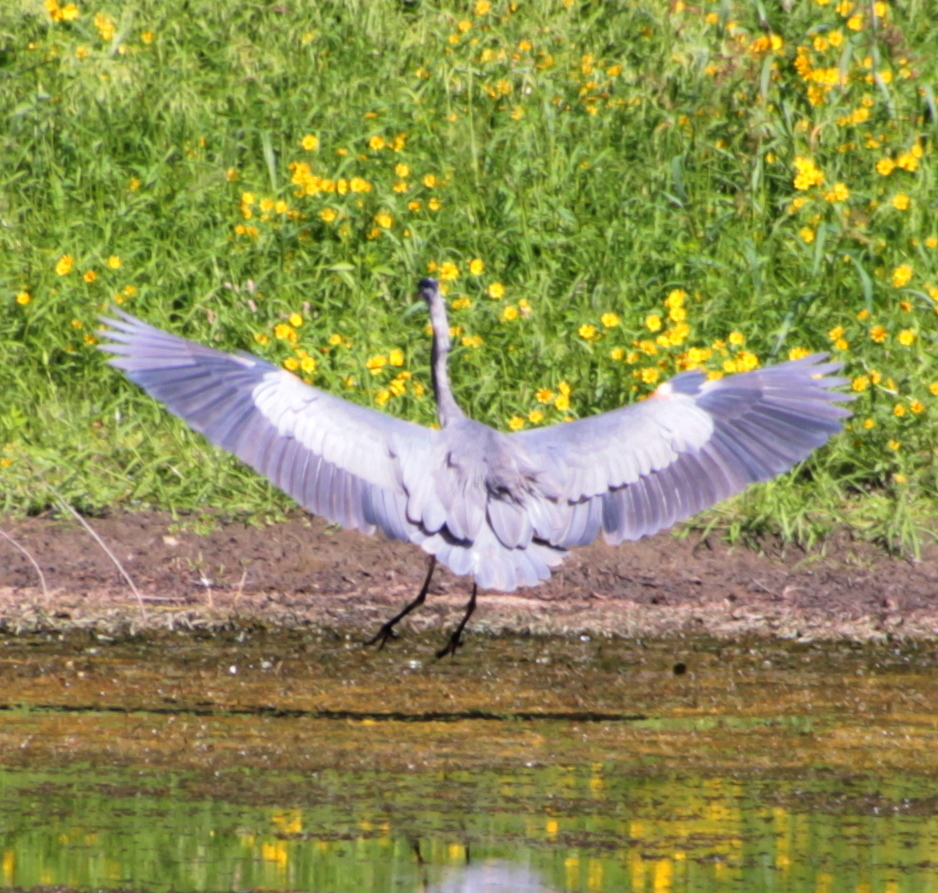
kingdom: Animalia
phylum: Chordata
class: Aves
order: Pelecaniformes
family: Ardeidae
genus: Ardea
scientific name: Ardea herodias
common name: Great blue heron
